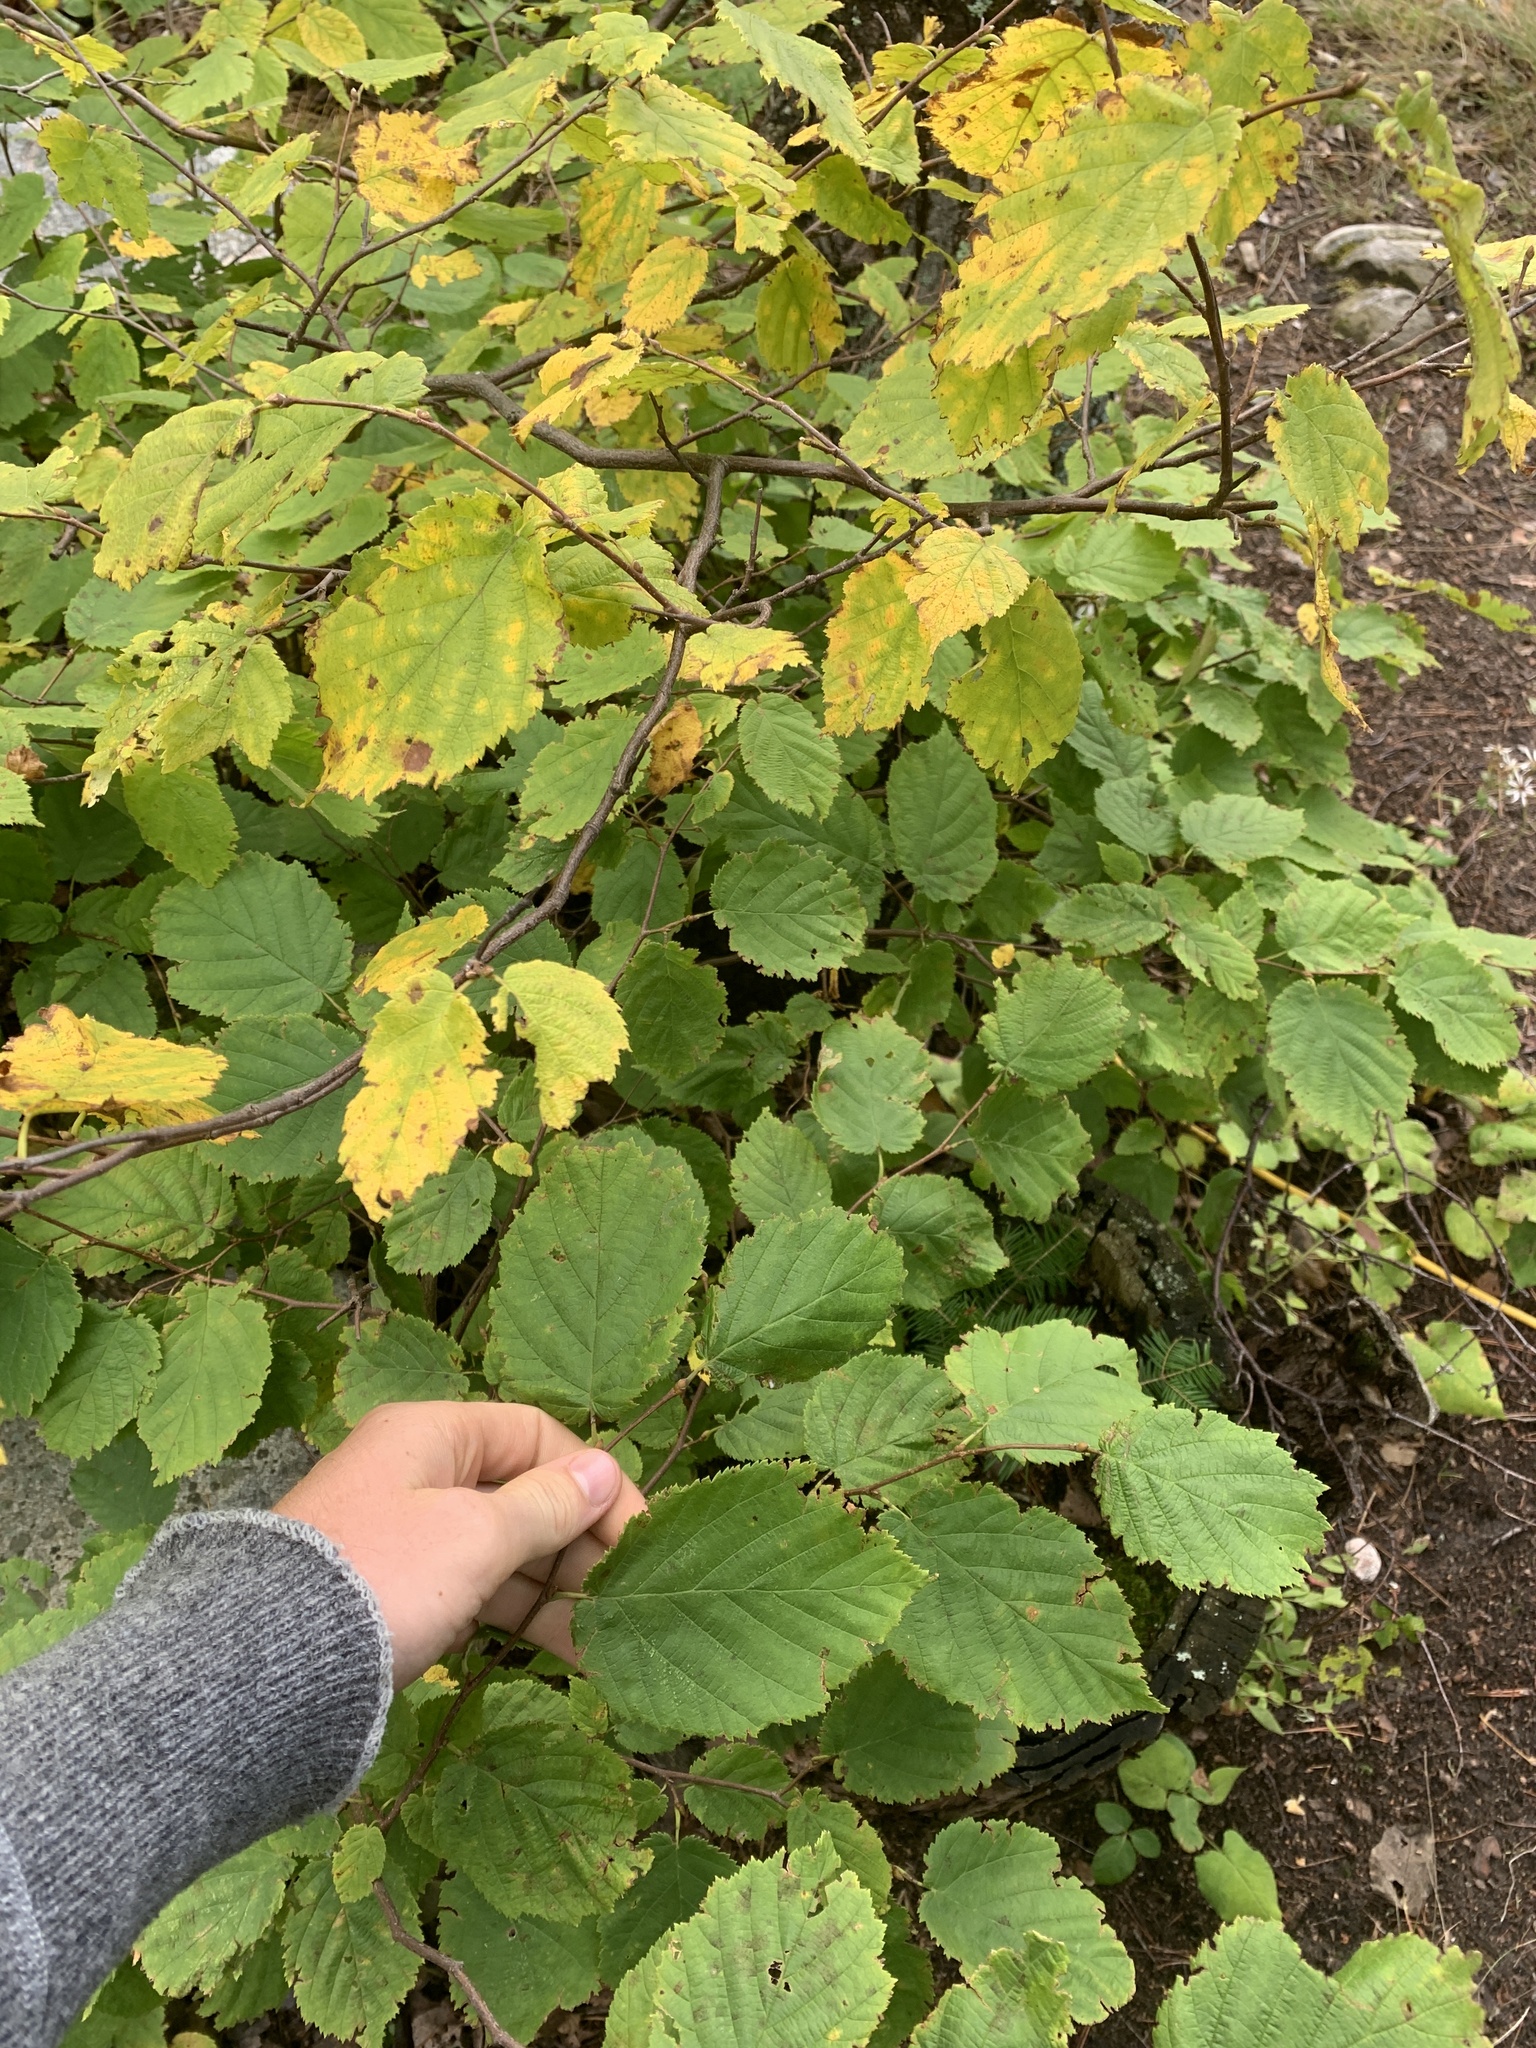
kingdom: Plantae
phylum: Tracheophyta
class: Magnoliopsida
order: Fagales
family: Betulaceae
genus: Corylus
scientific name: Corylus cornuta
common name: Beaked hazel
